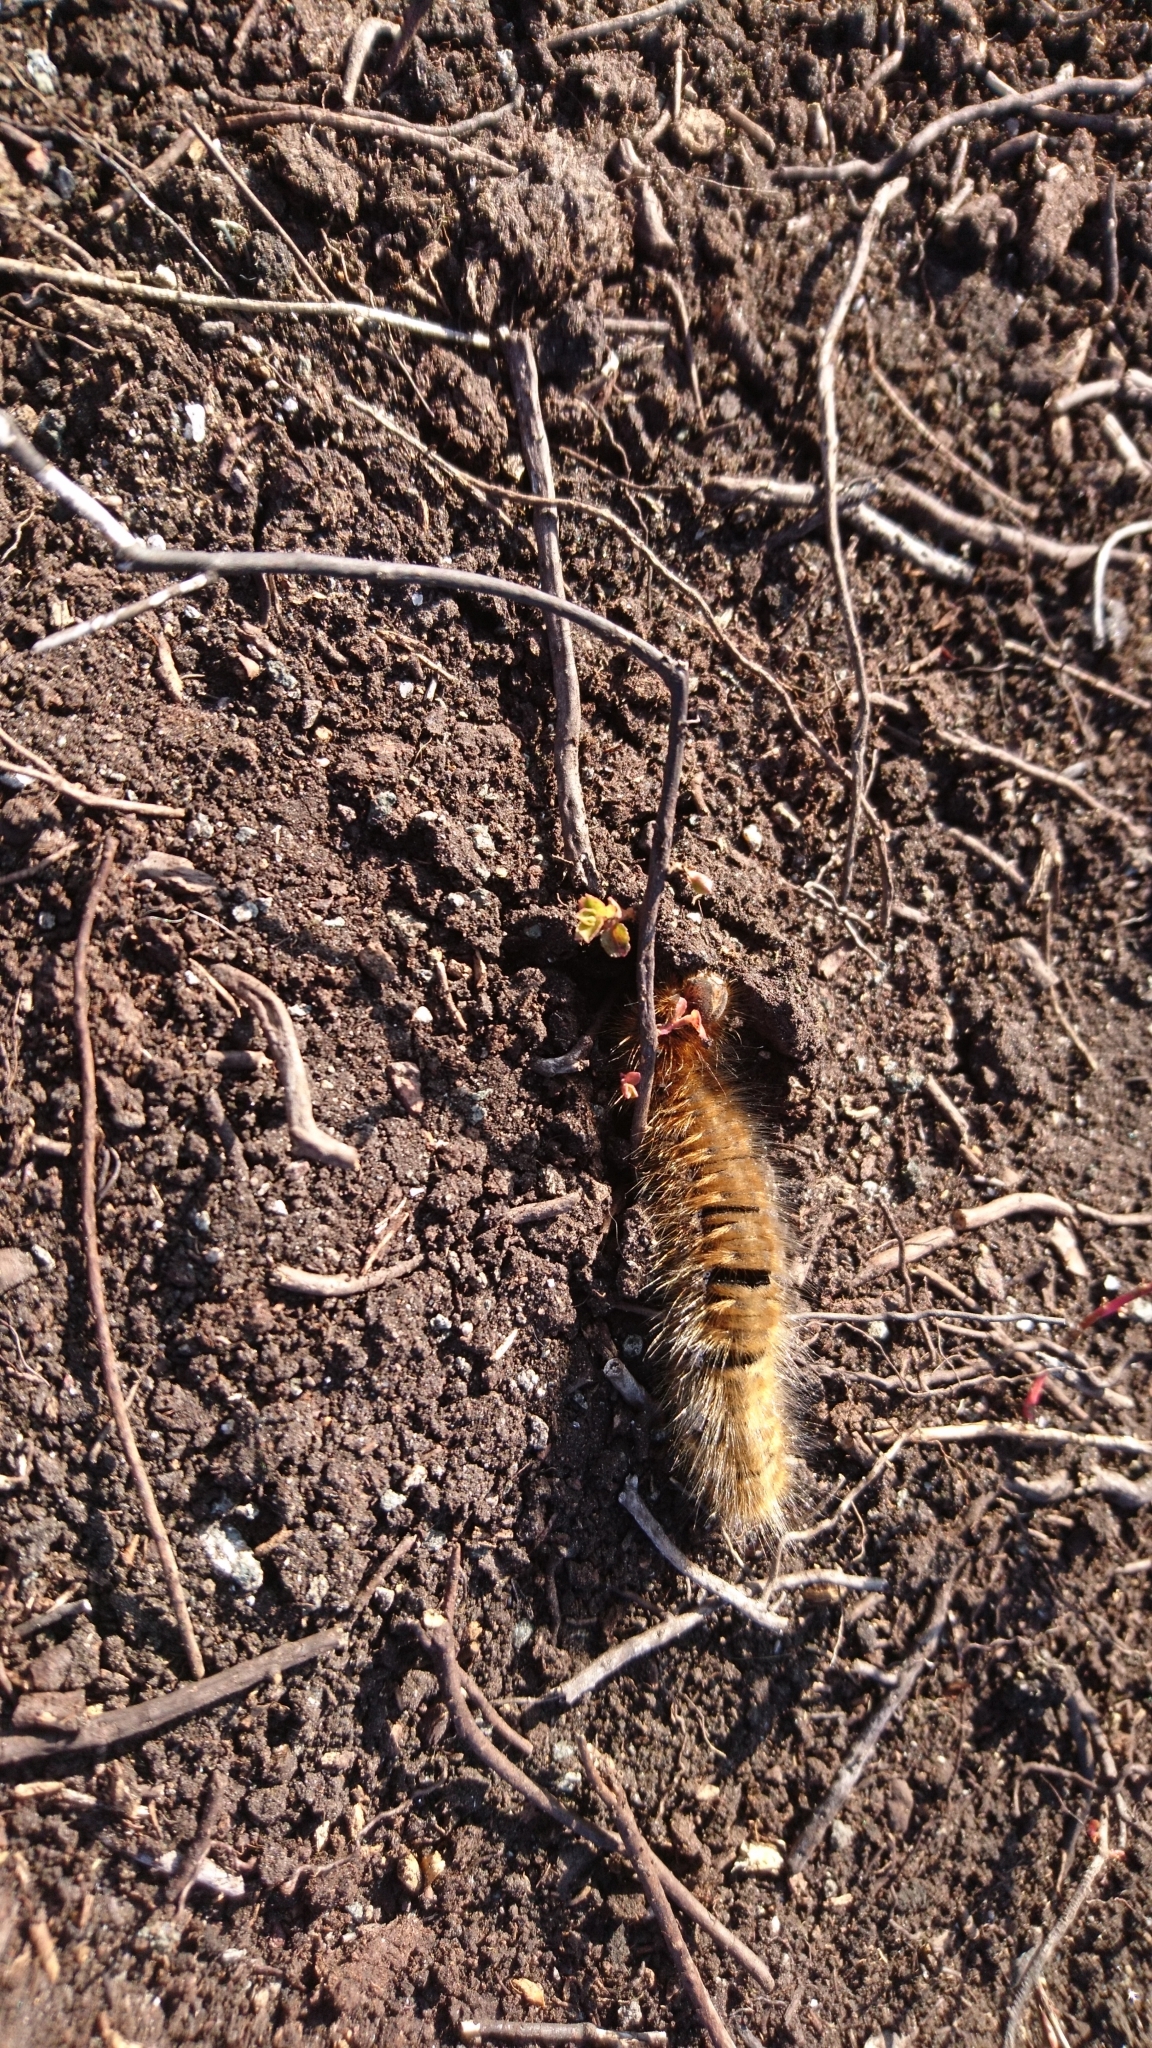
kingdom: Animalia
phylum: Arthropoda
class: Insecta
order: Lepidoptera
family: Lasiocampidae
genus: Lasiocampa
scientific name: Lasiocampa quercus
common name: Oak eggar
